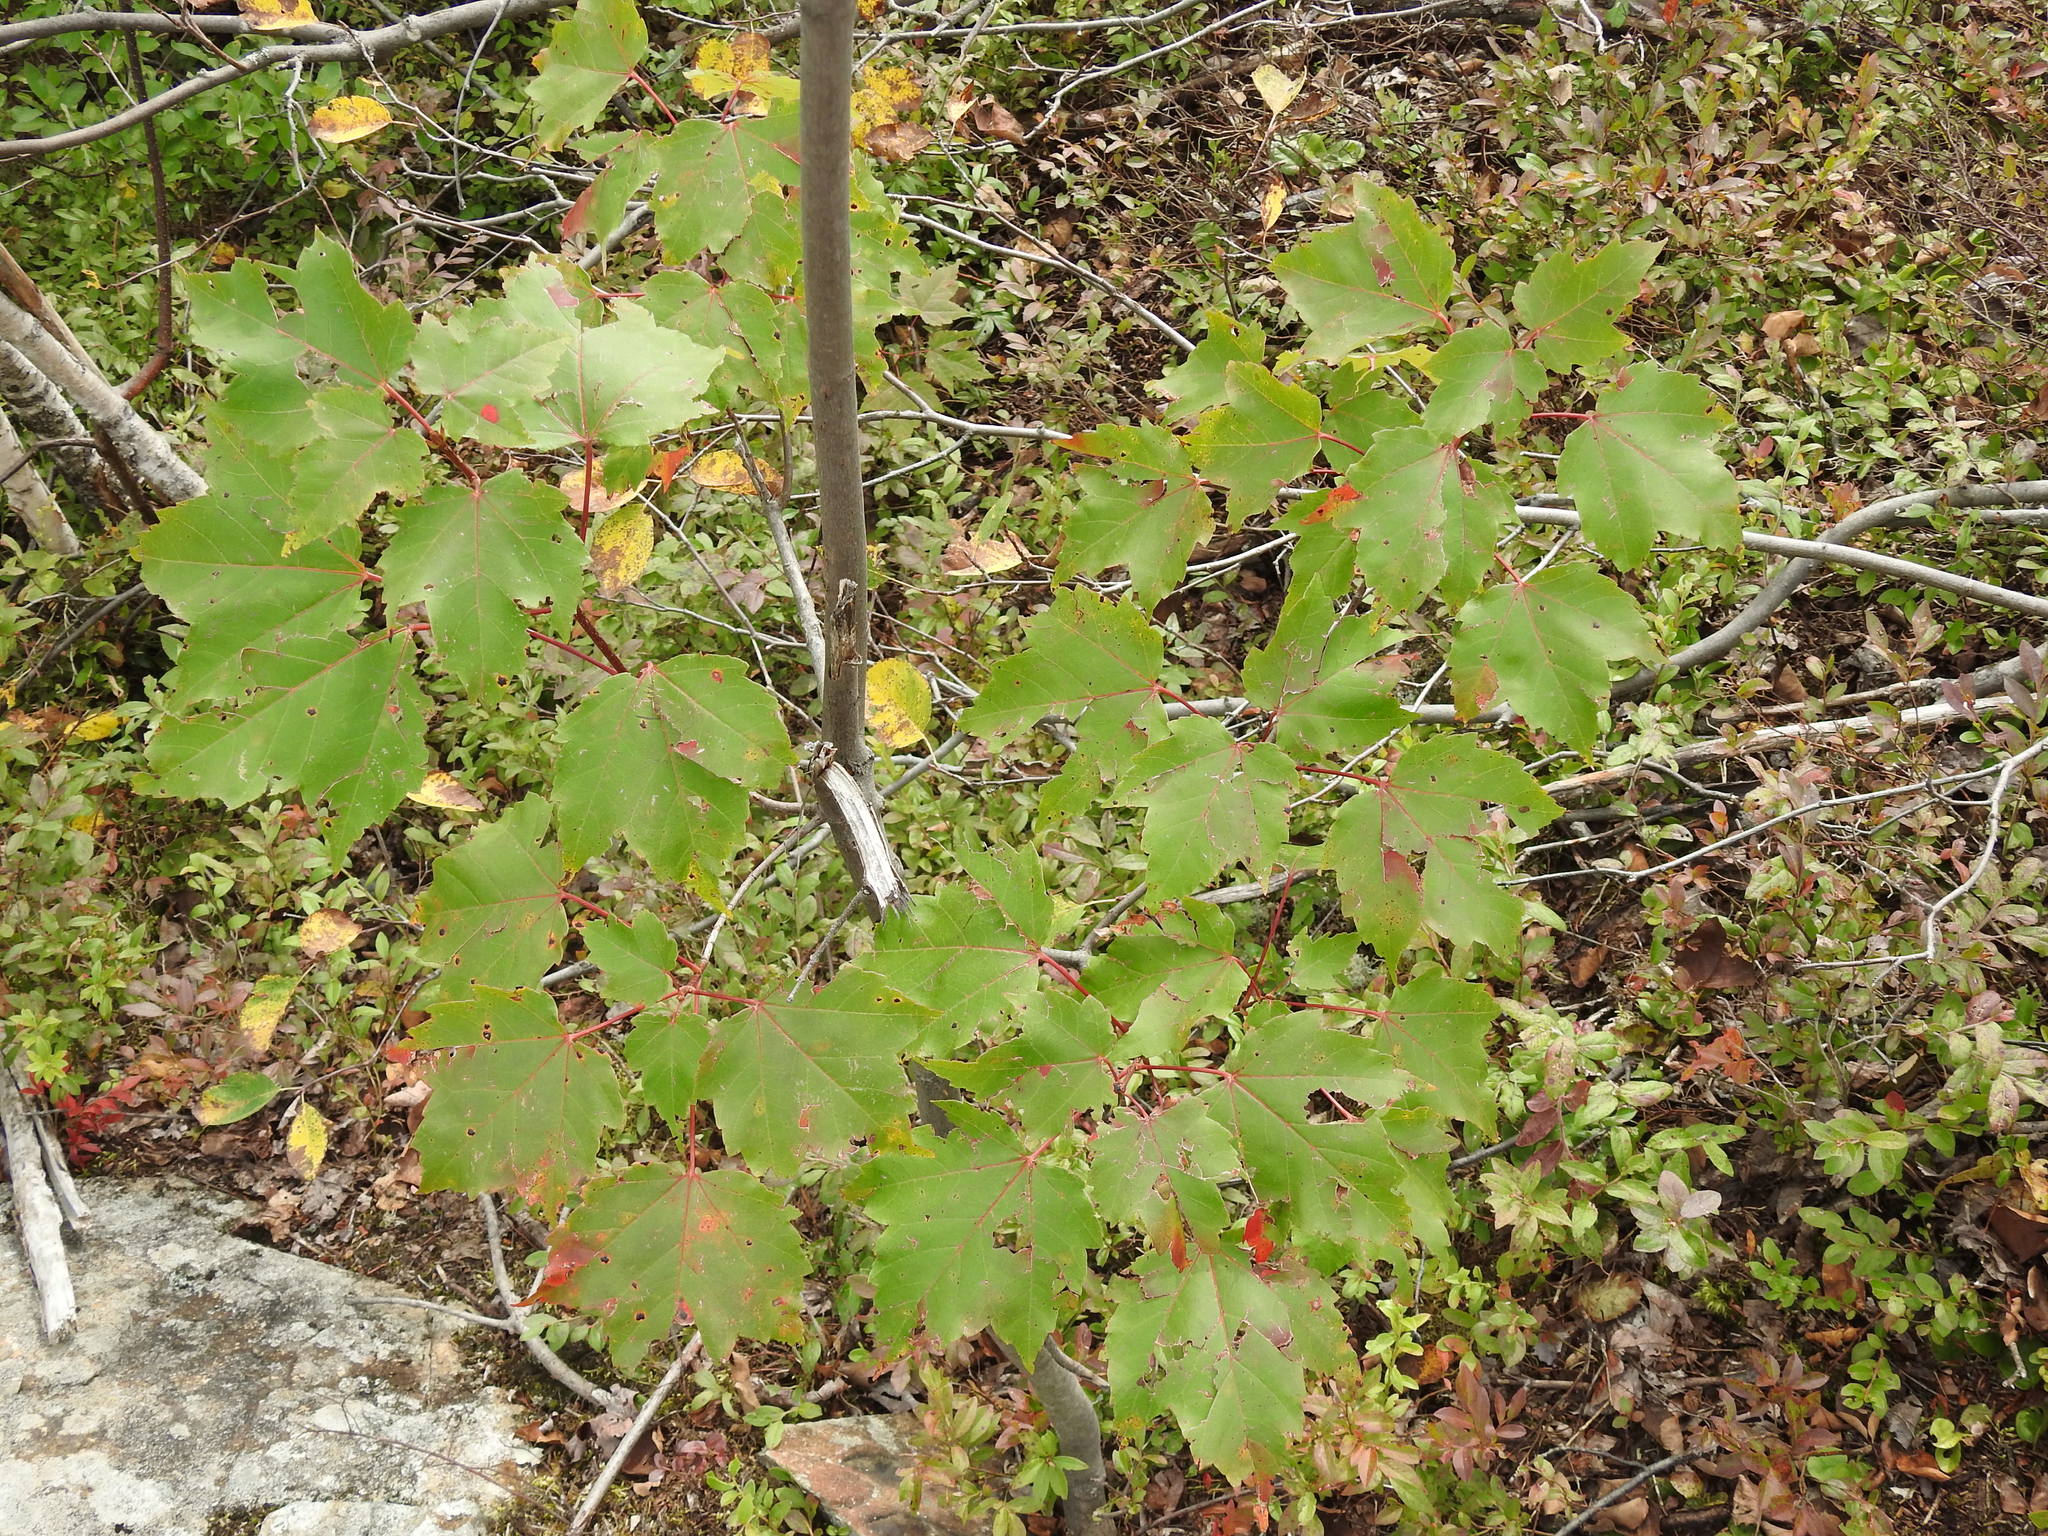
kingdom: Plantae
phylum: Tracheophyta
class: Magnoliopsida
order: Sapindales
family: Sapindaceae
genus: Acer
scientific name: Acer rubrum
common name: Red maple
